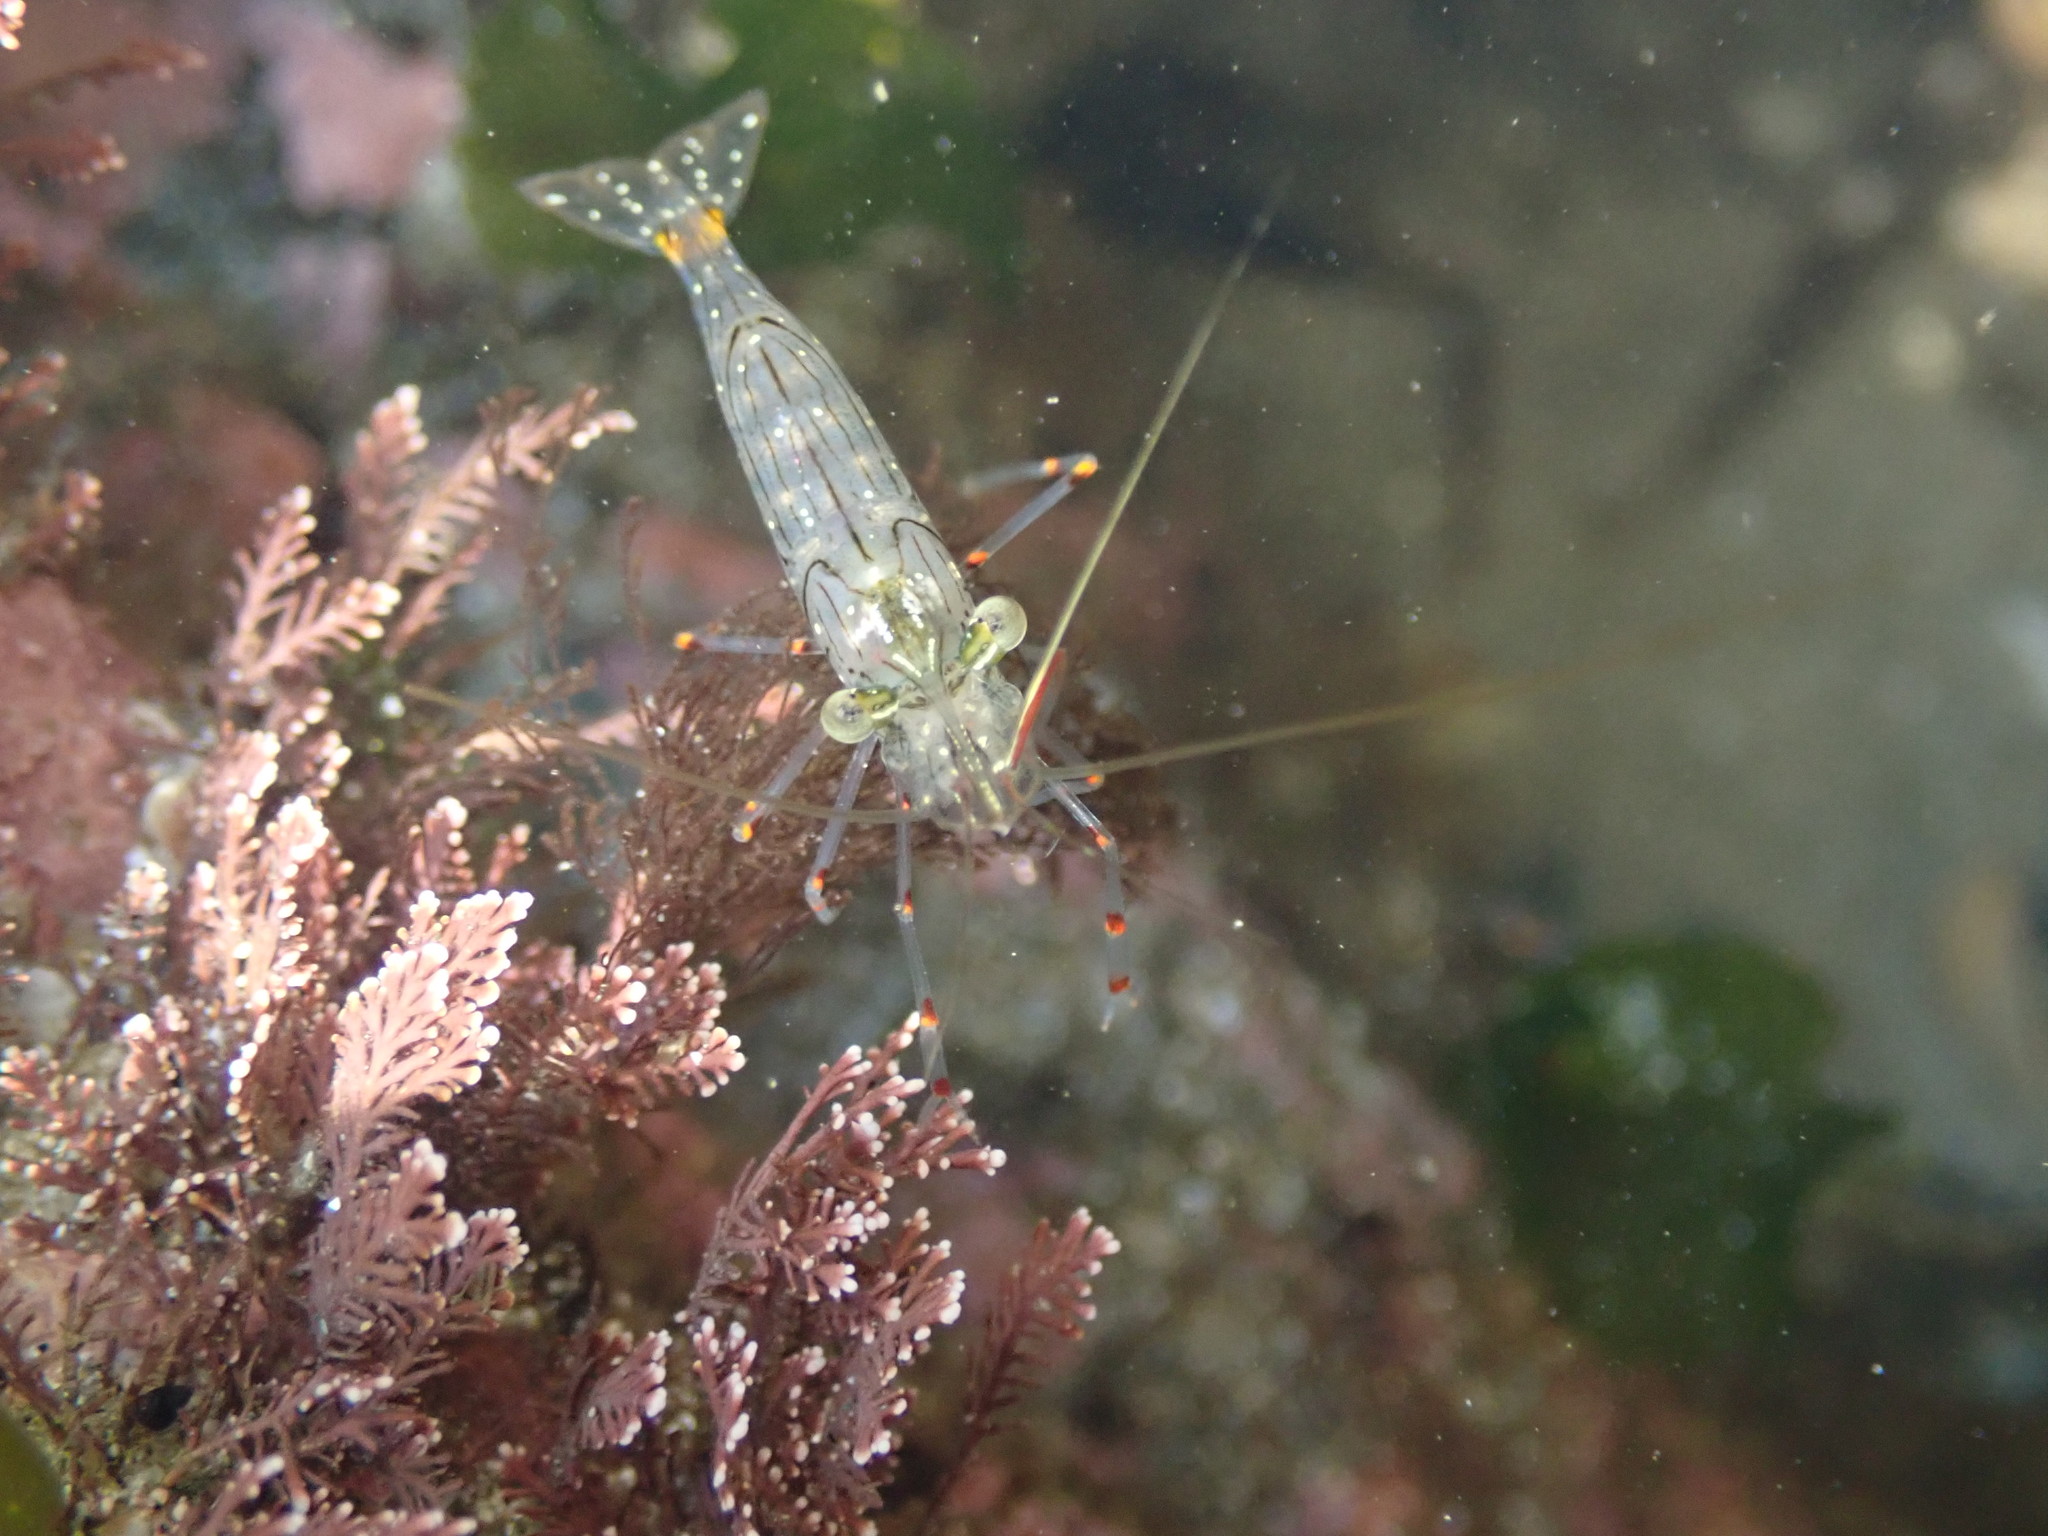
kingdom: Animalia
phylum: Arthropoda
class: Malacostraca
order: Decapoda
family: Palaemonidae
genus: Palaemon
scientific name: Palaemon affinis
